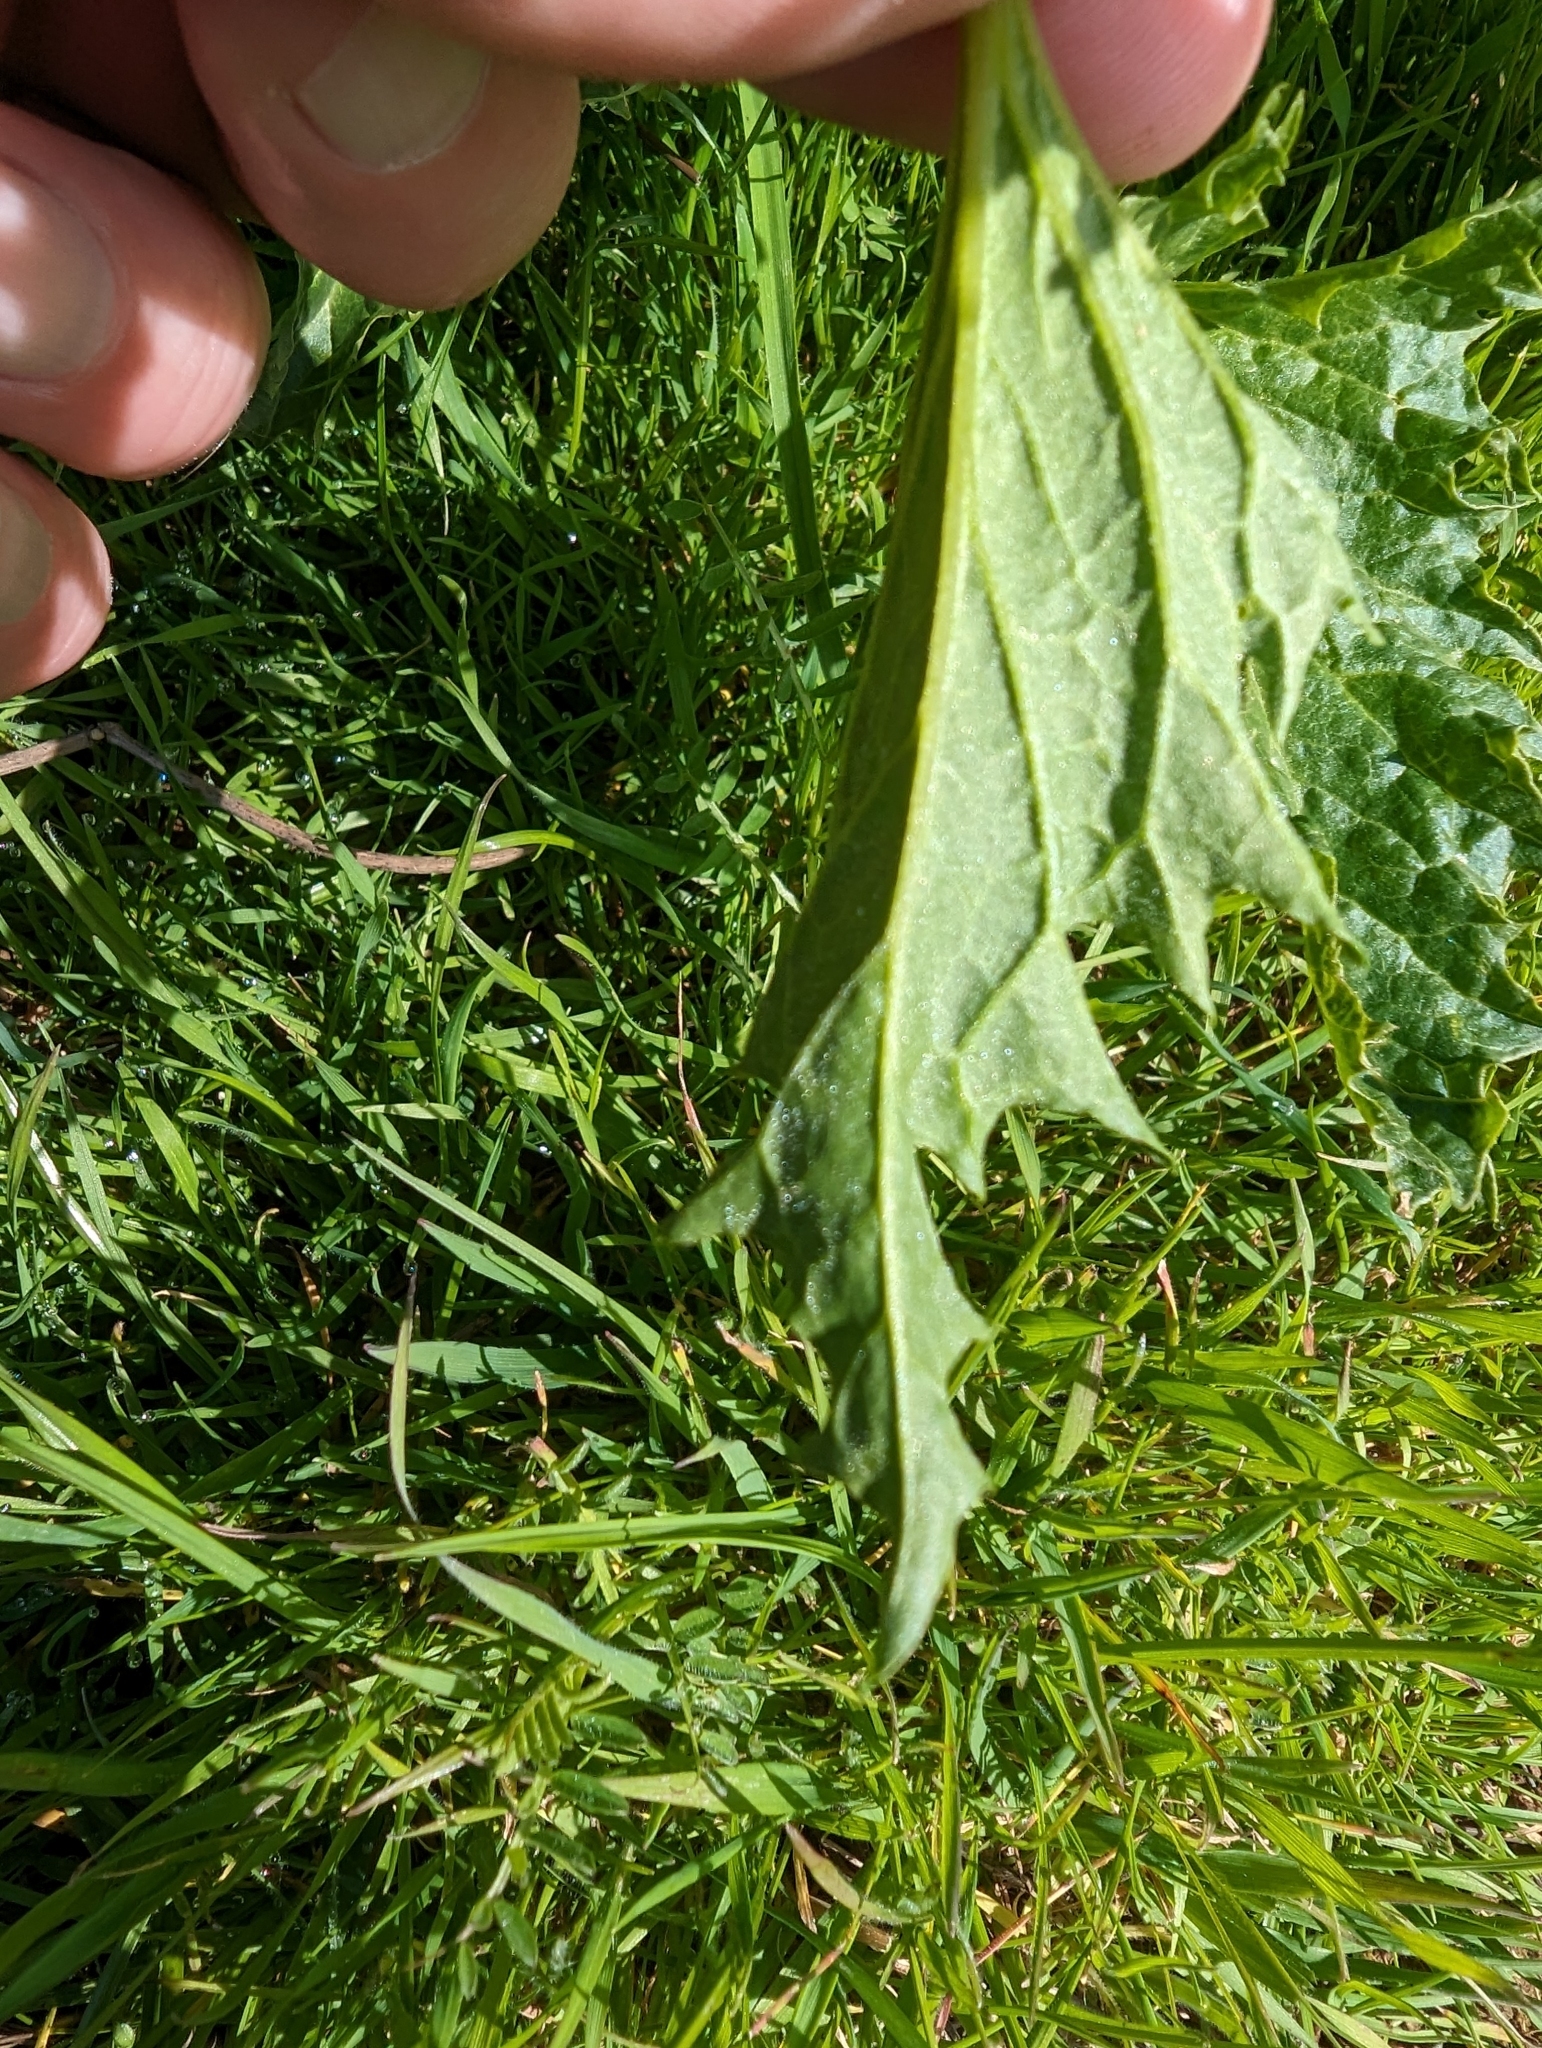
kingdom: Plantae
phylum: Tracheophyta
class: Magnoliopsida
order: Caryophyllales
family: Amaranthaceae
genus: Blitum
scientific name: Blitum californicum
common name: California goosefoot
